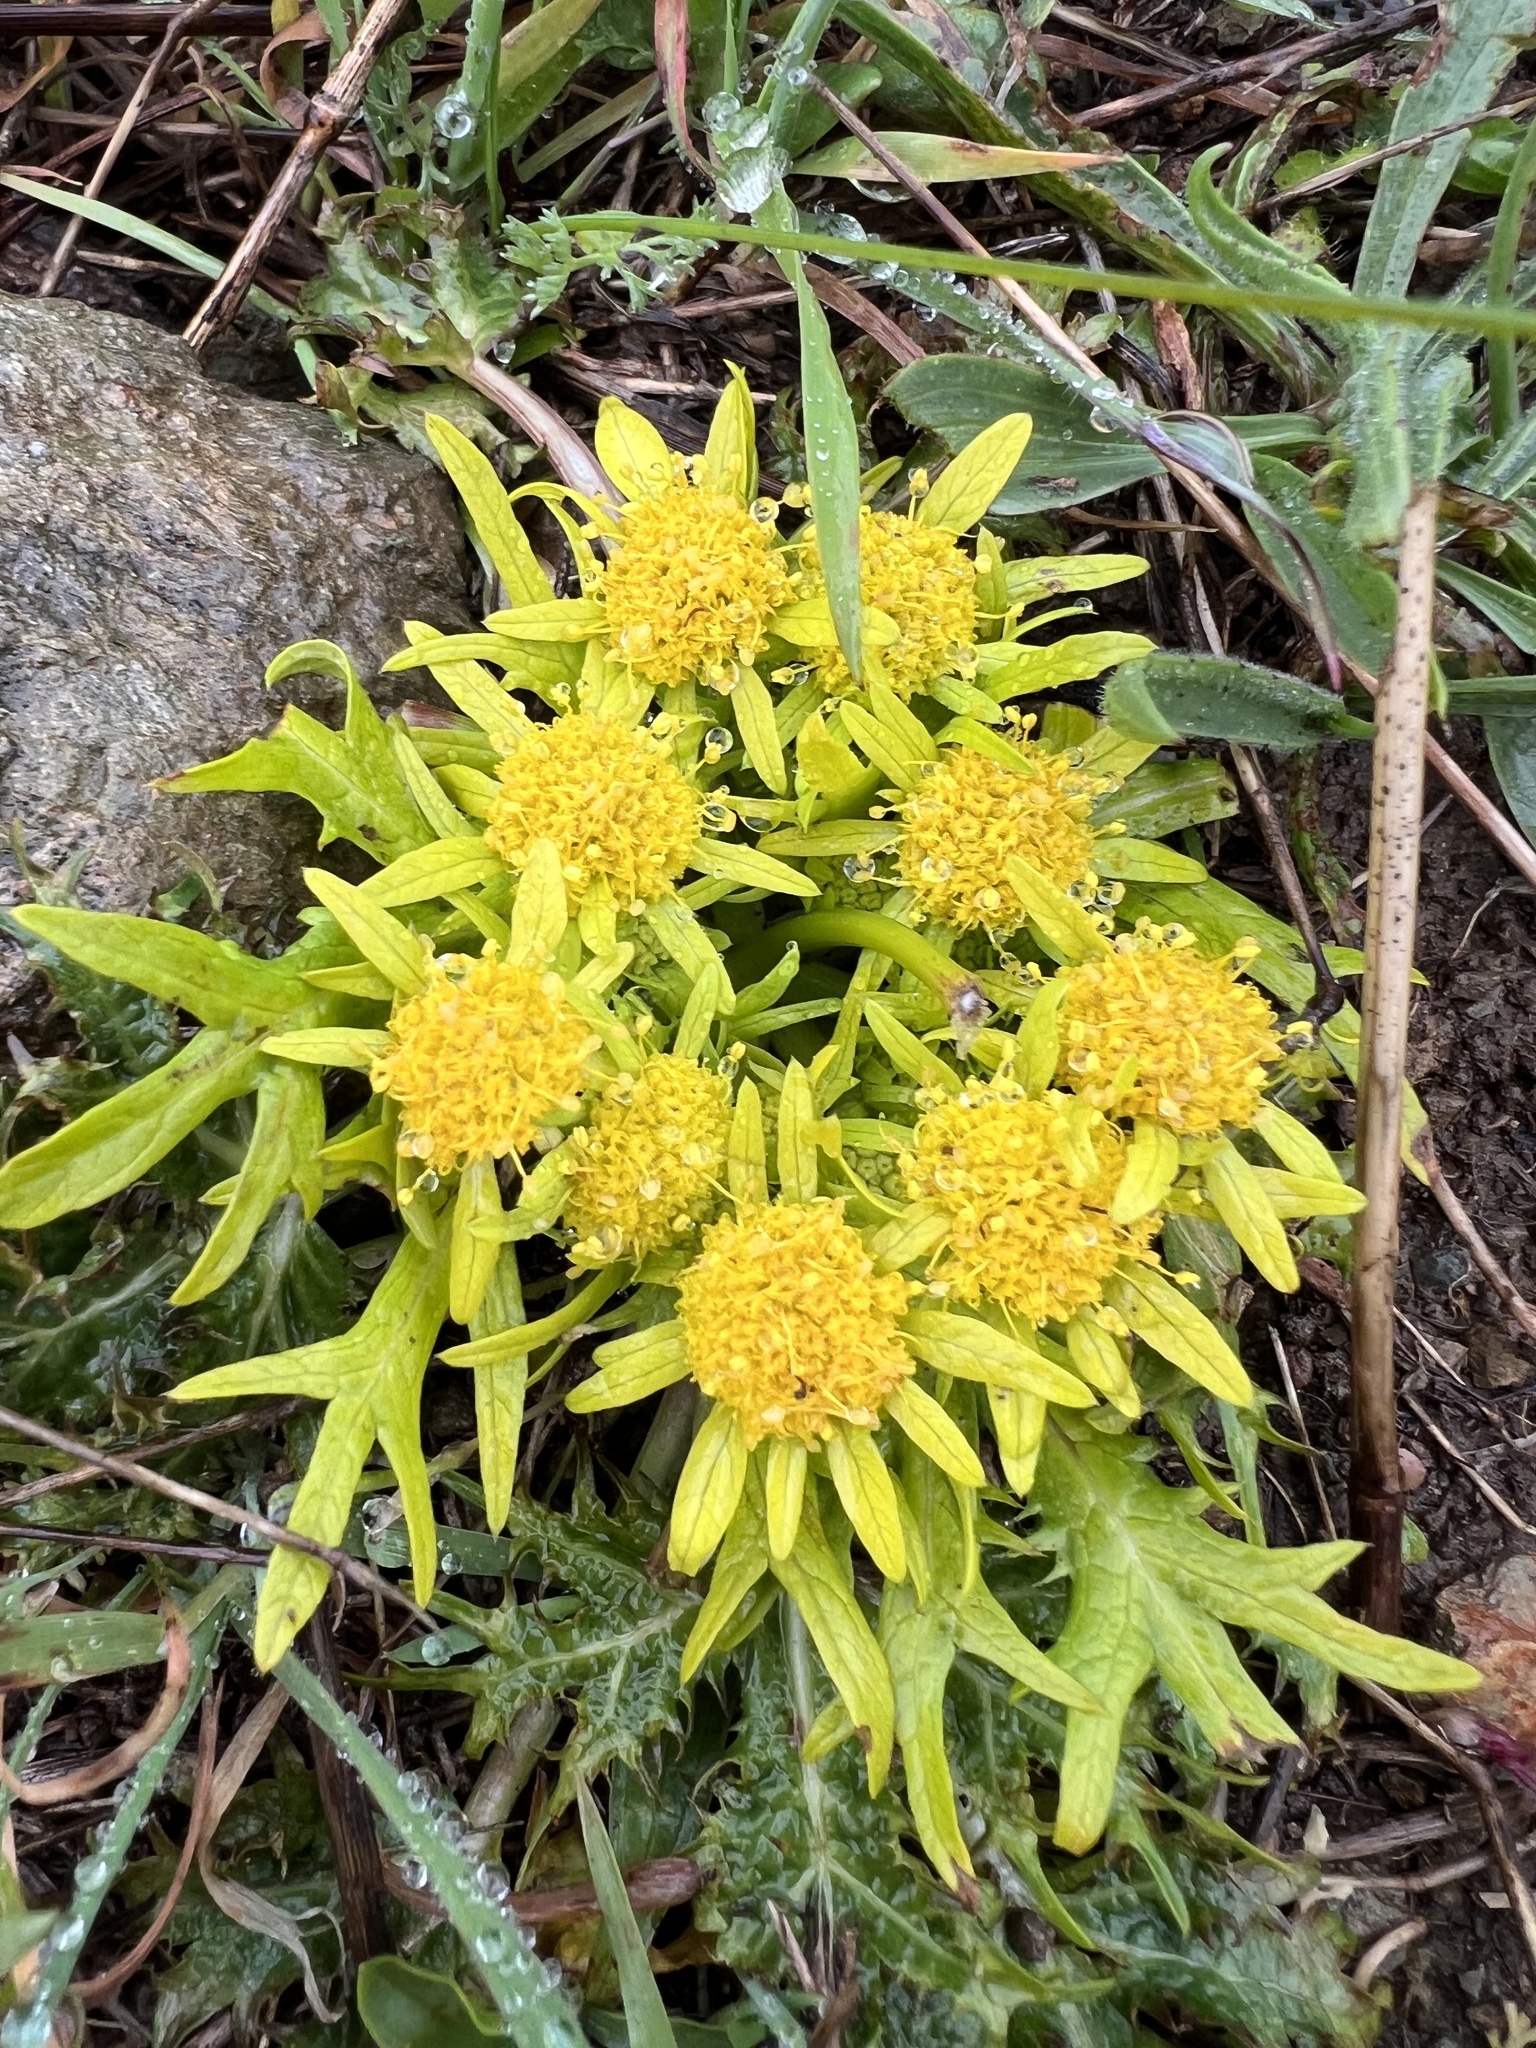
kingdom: Plantae
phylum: Tracheophyta
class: Magnoliopsida
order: Apiales
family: Apiaceae
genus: Sanicula
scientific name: Sanicula arctopoides
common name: Footsteps-of-spring
